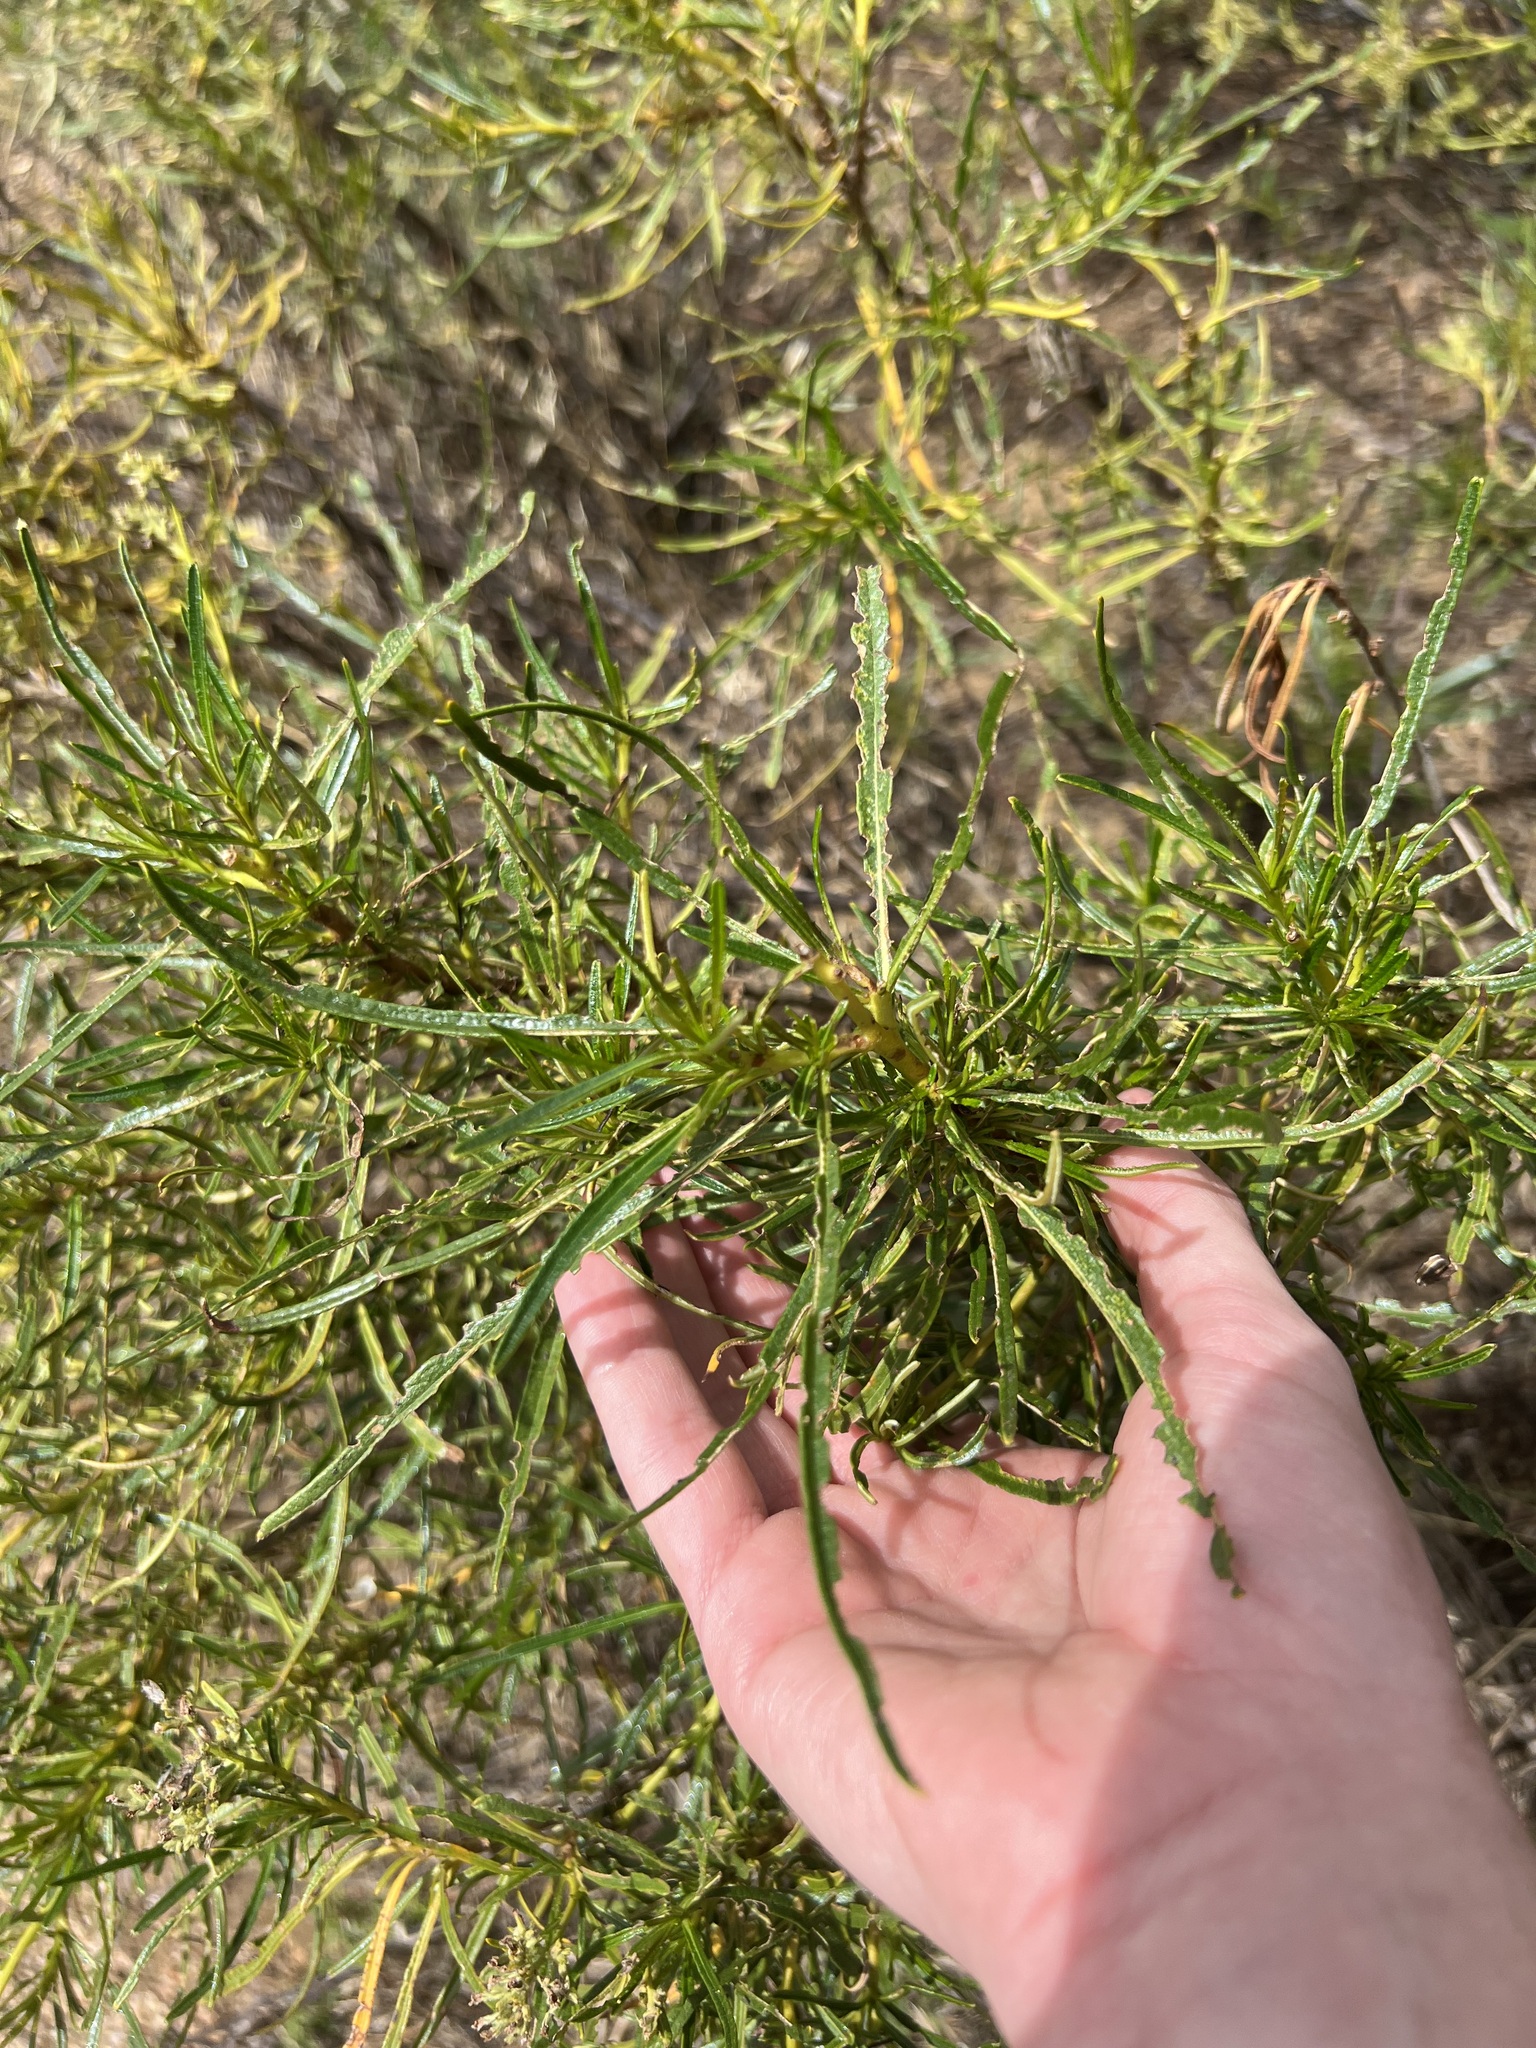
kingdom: Plantae
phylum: Tracheophyta
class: Magnoliopsida
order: Boraginales
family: Namaceae
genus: Eriodictyon
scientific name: Eriodictyon angustifolium
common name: Narrow-leaf yerba santa
